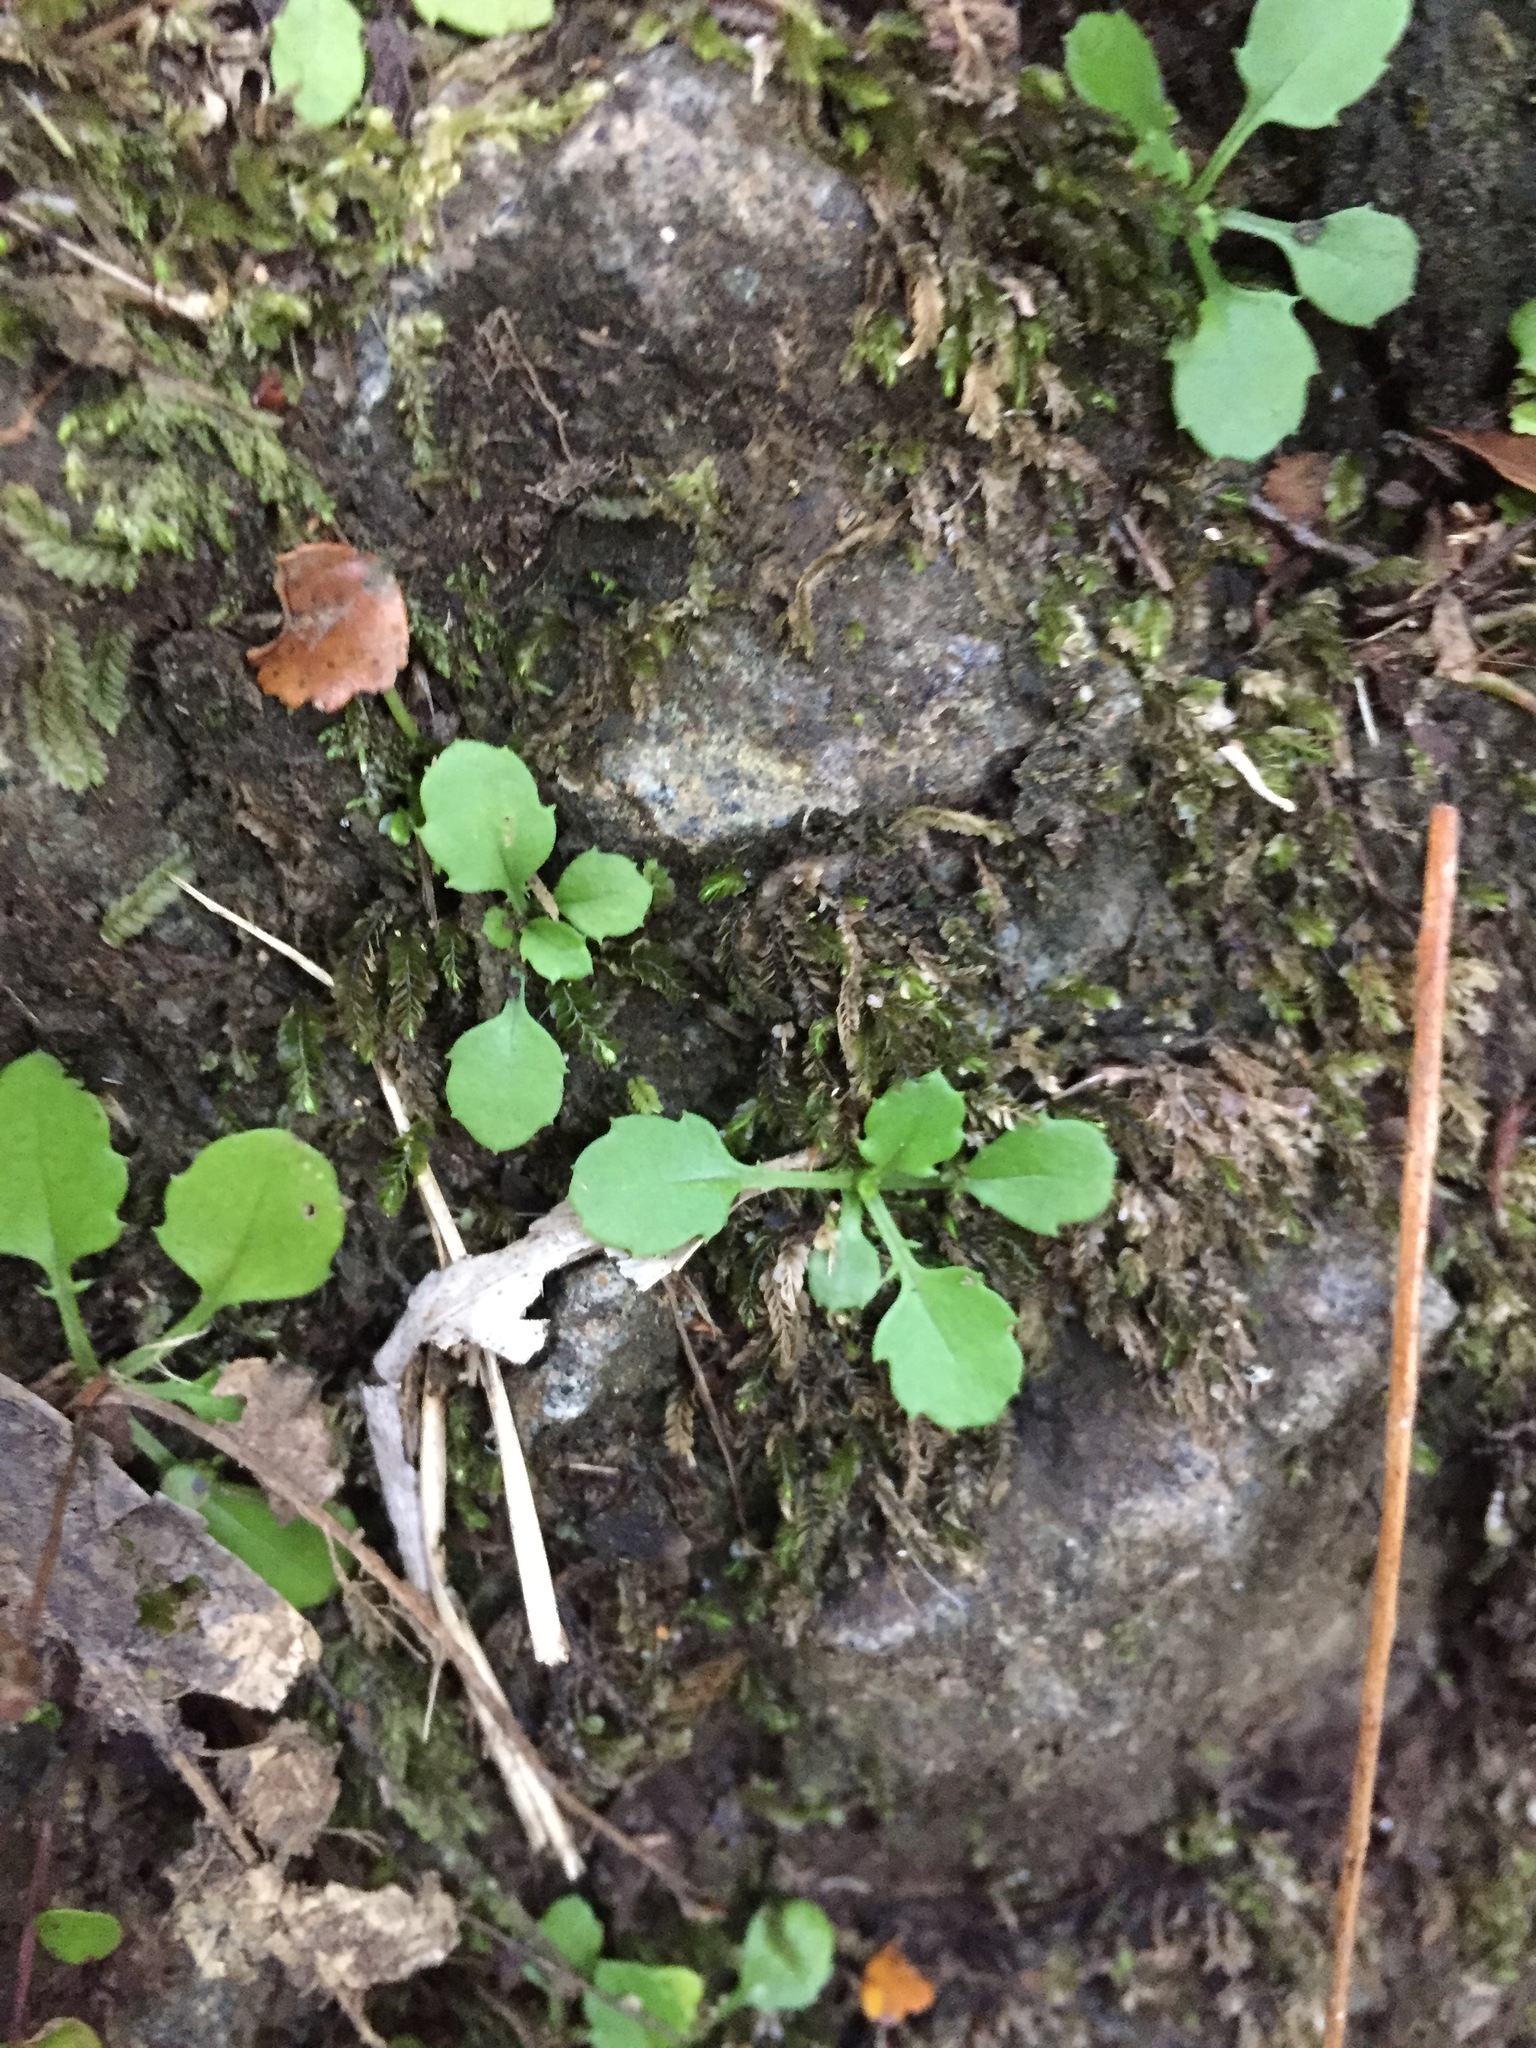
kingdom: Plantae
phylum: Tracheophyta
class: Magnoliopsida
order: Asterales
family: Asteraceae
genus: Lagenophora
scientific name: Lagenophora pumila
